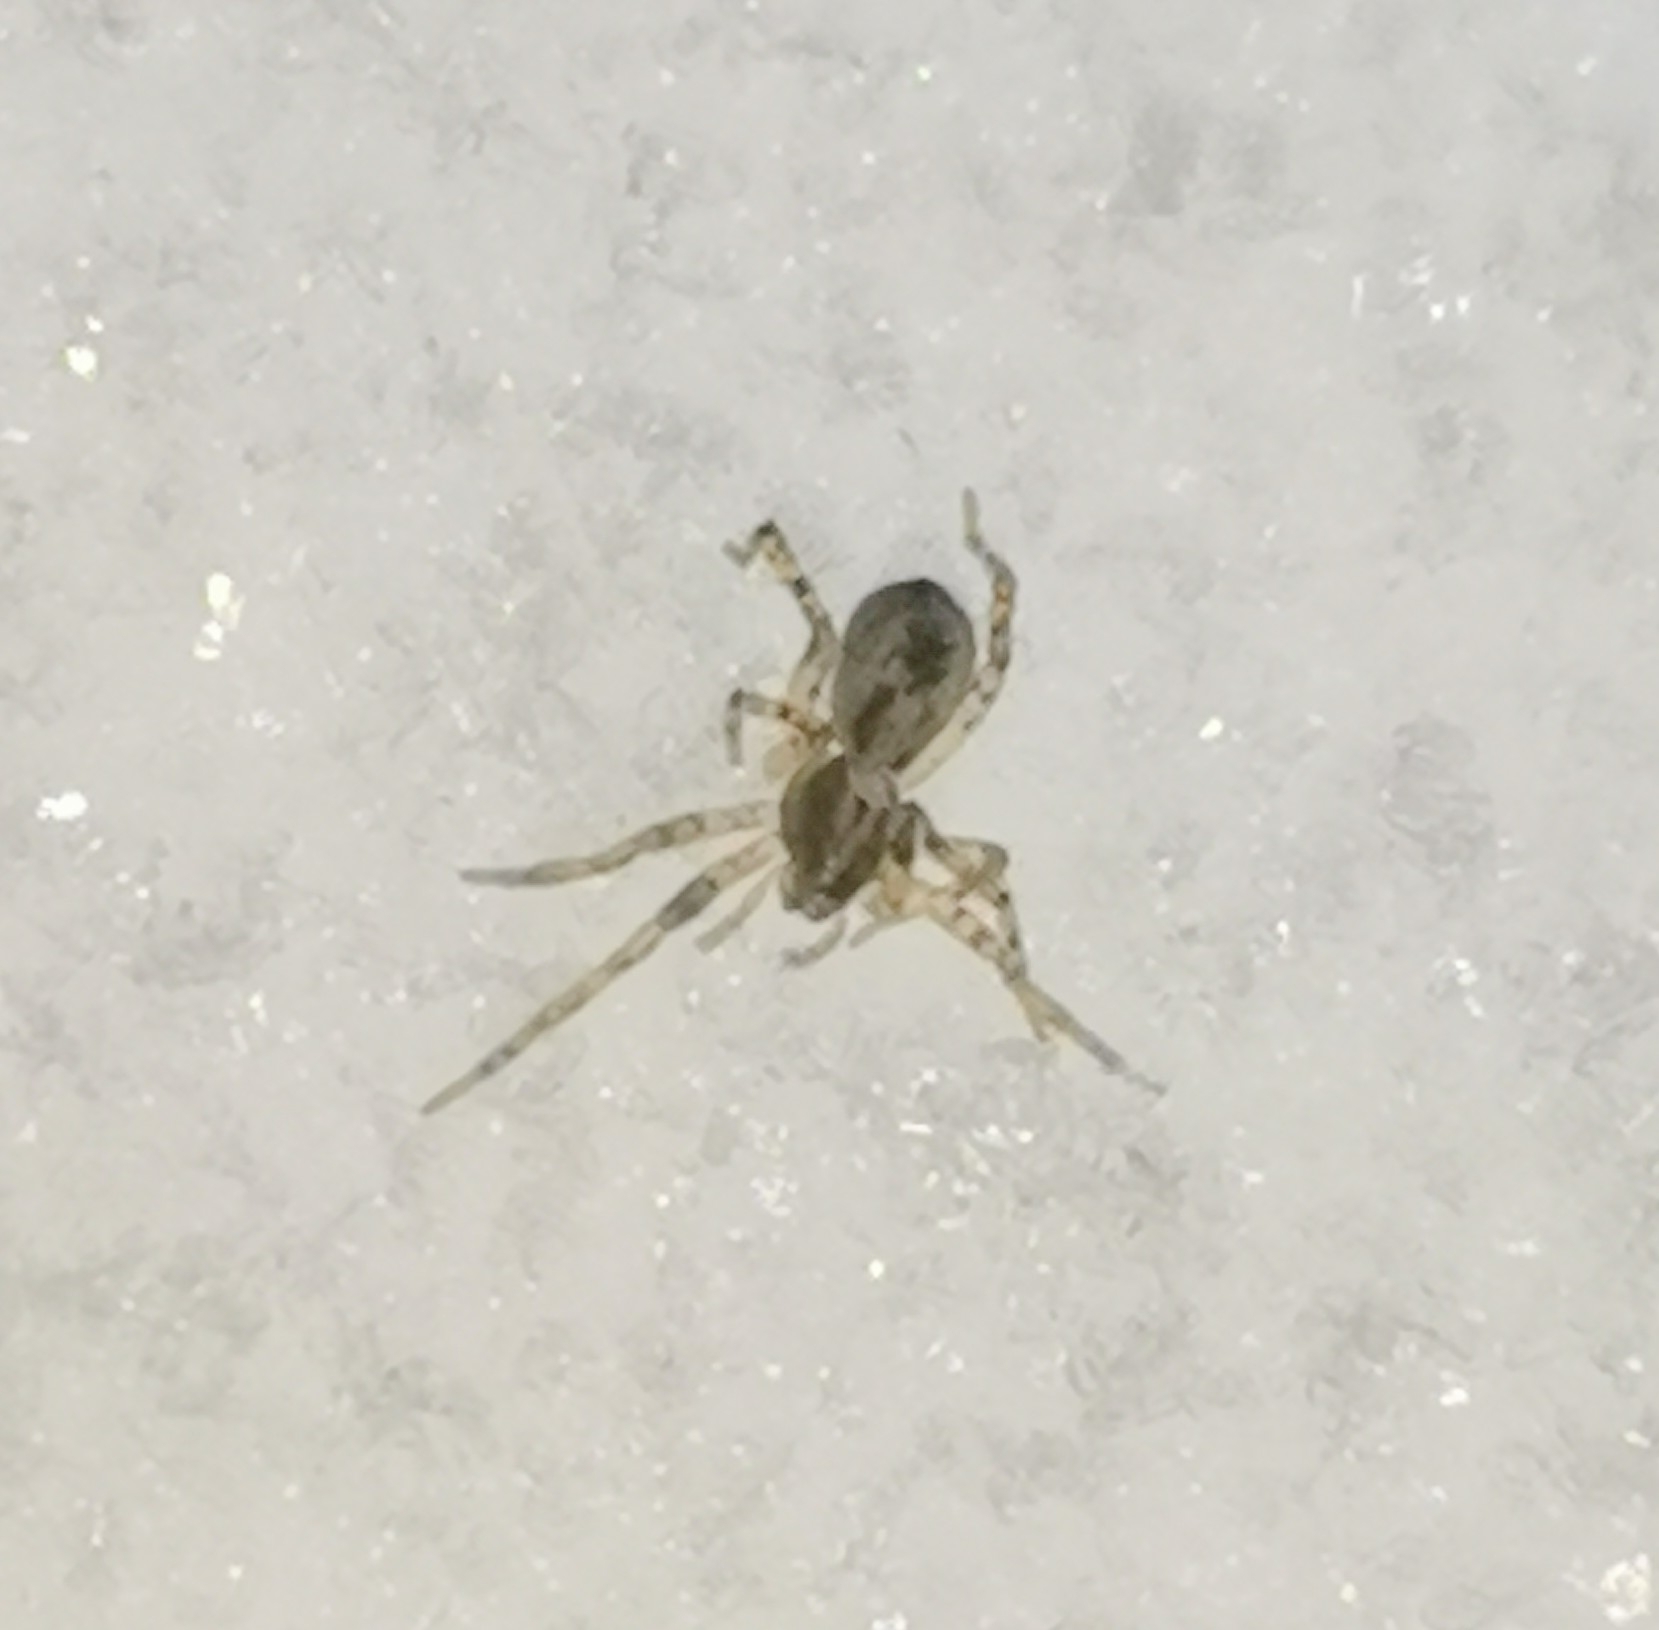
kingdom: Animalia
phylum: Arthropoda
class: Arachnida
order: Araneae
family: Anyphaenidae
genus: Anyphaena
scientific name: Anyphaena accentuata
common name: Buzzing spider
